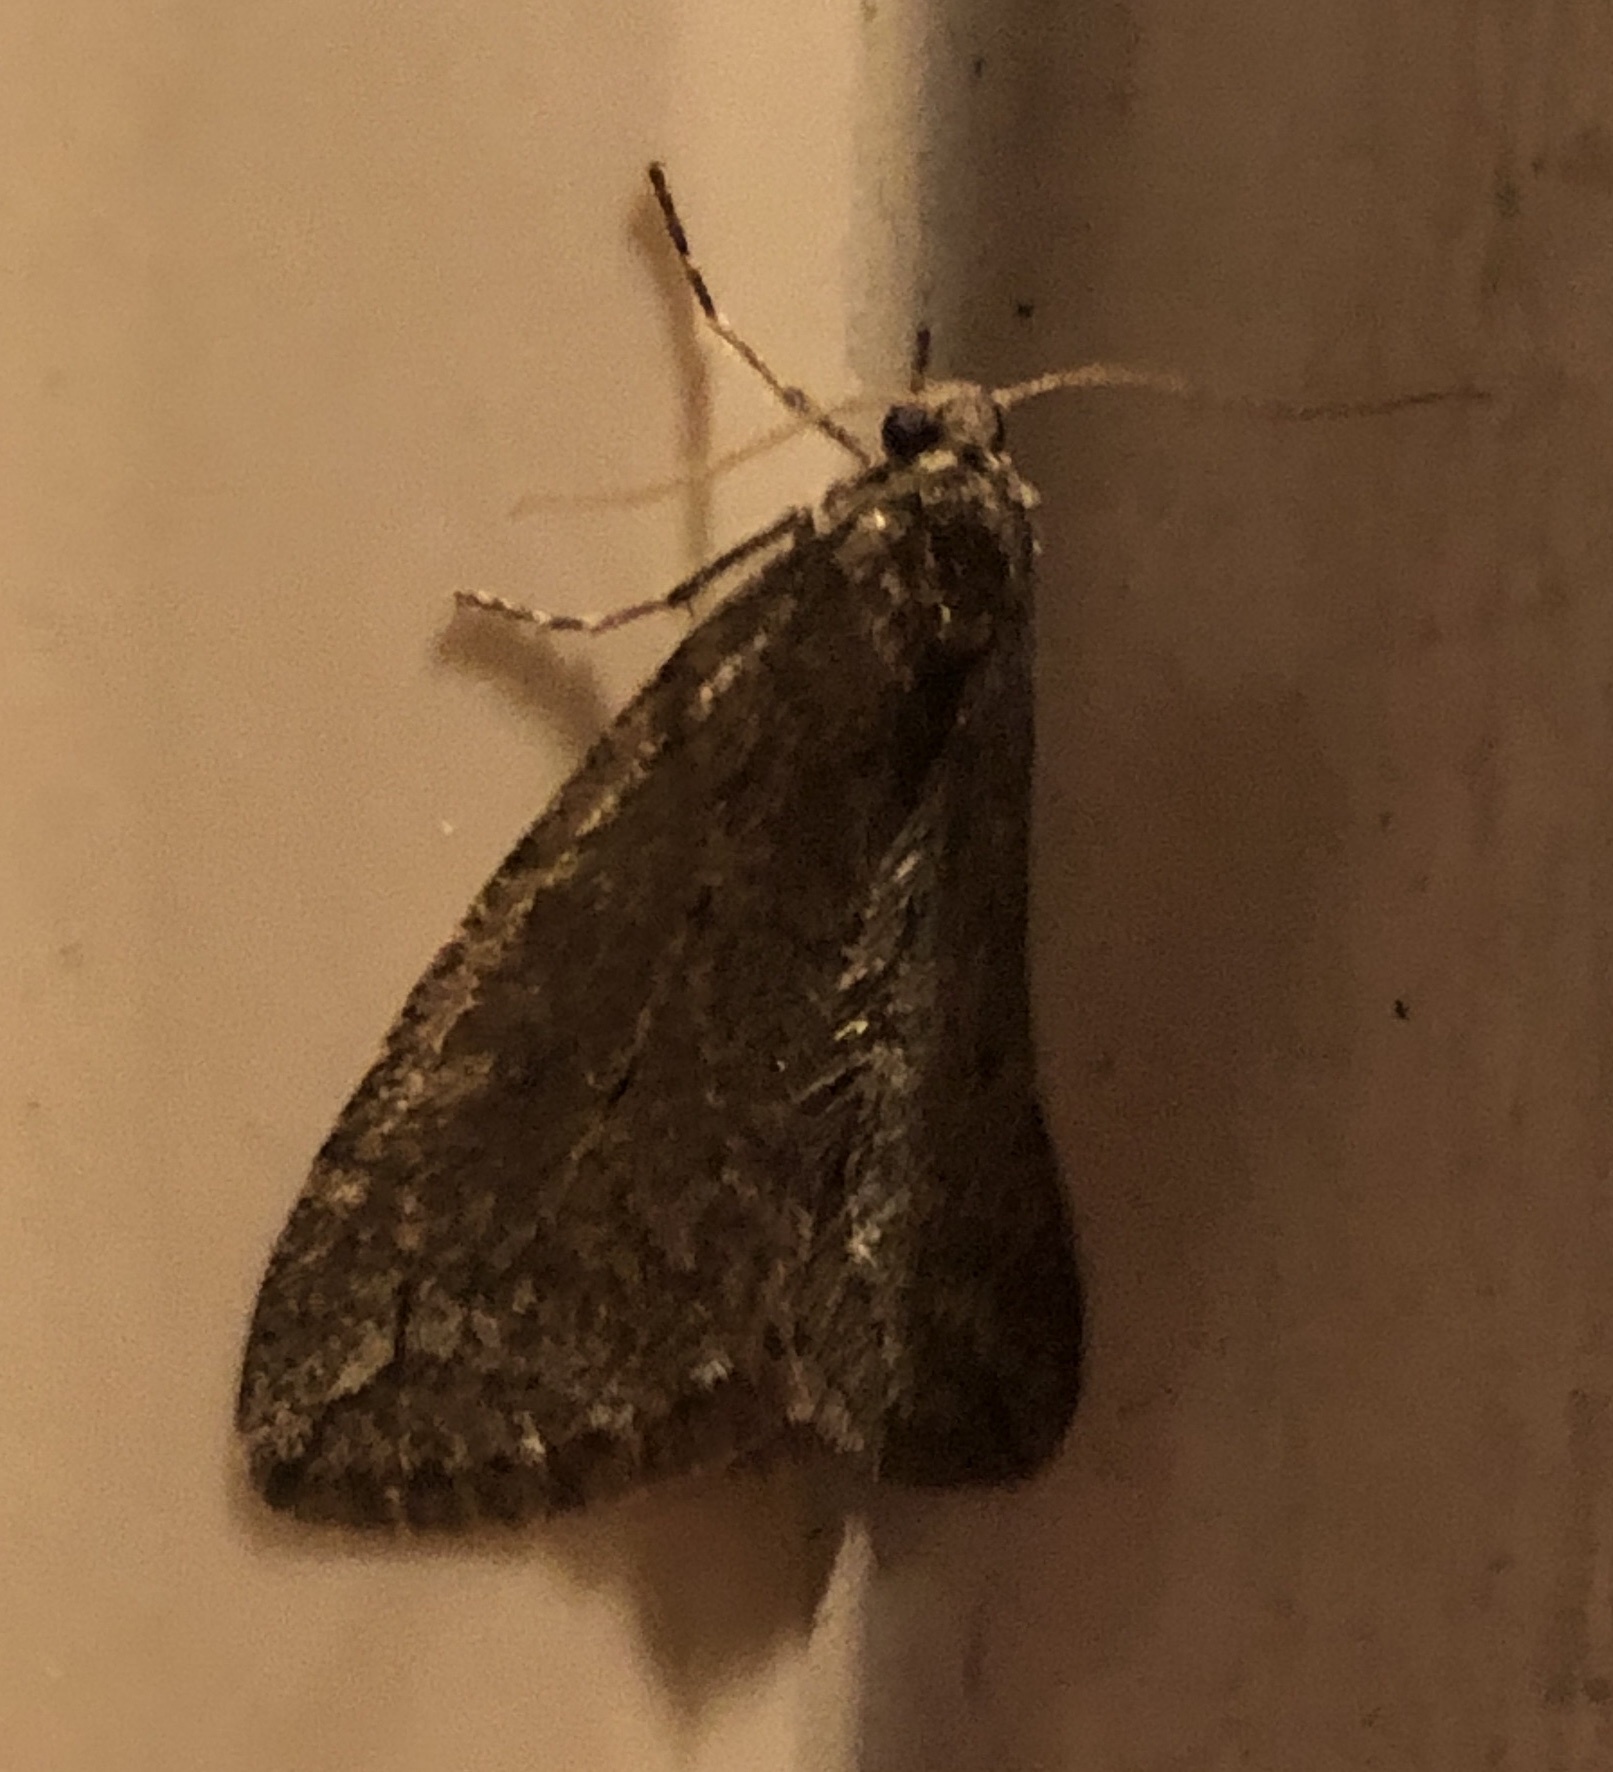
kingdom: Animalia
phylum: Arthropoda
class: Insecta
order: Lepidoptera
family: Geometridae
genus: Paleacrita
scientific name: Paleacrita vernata
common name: Spring cankerworm
